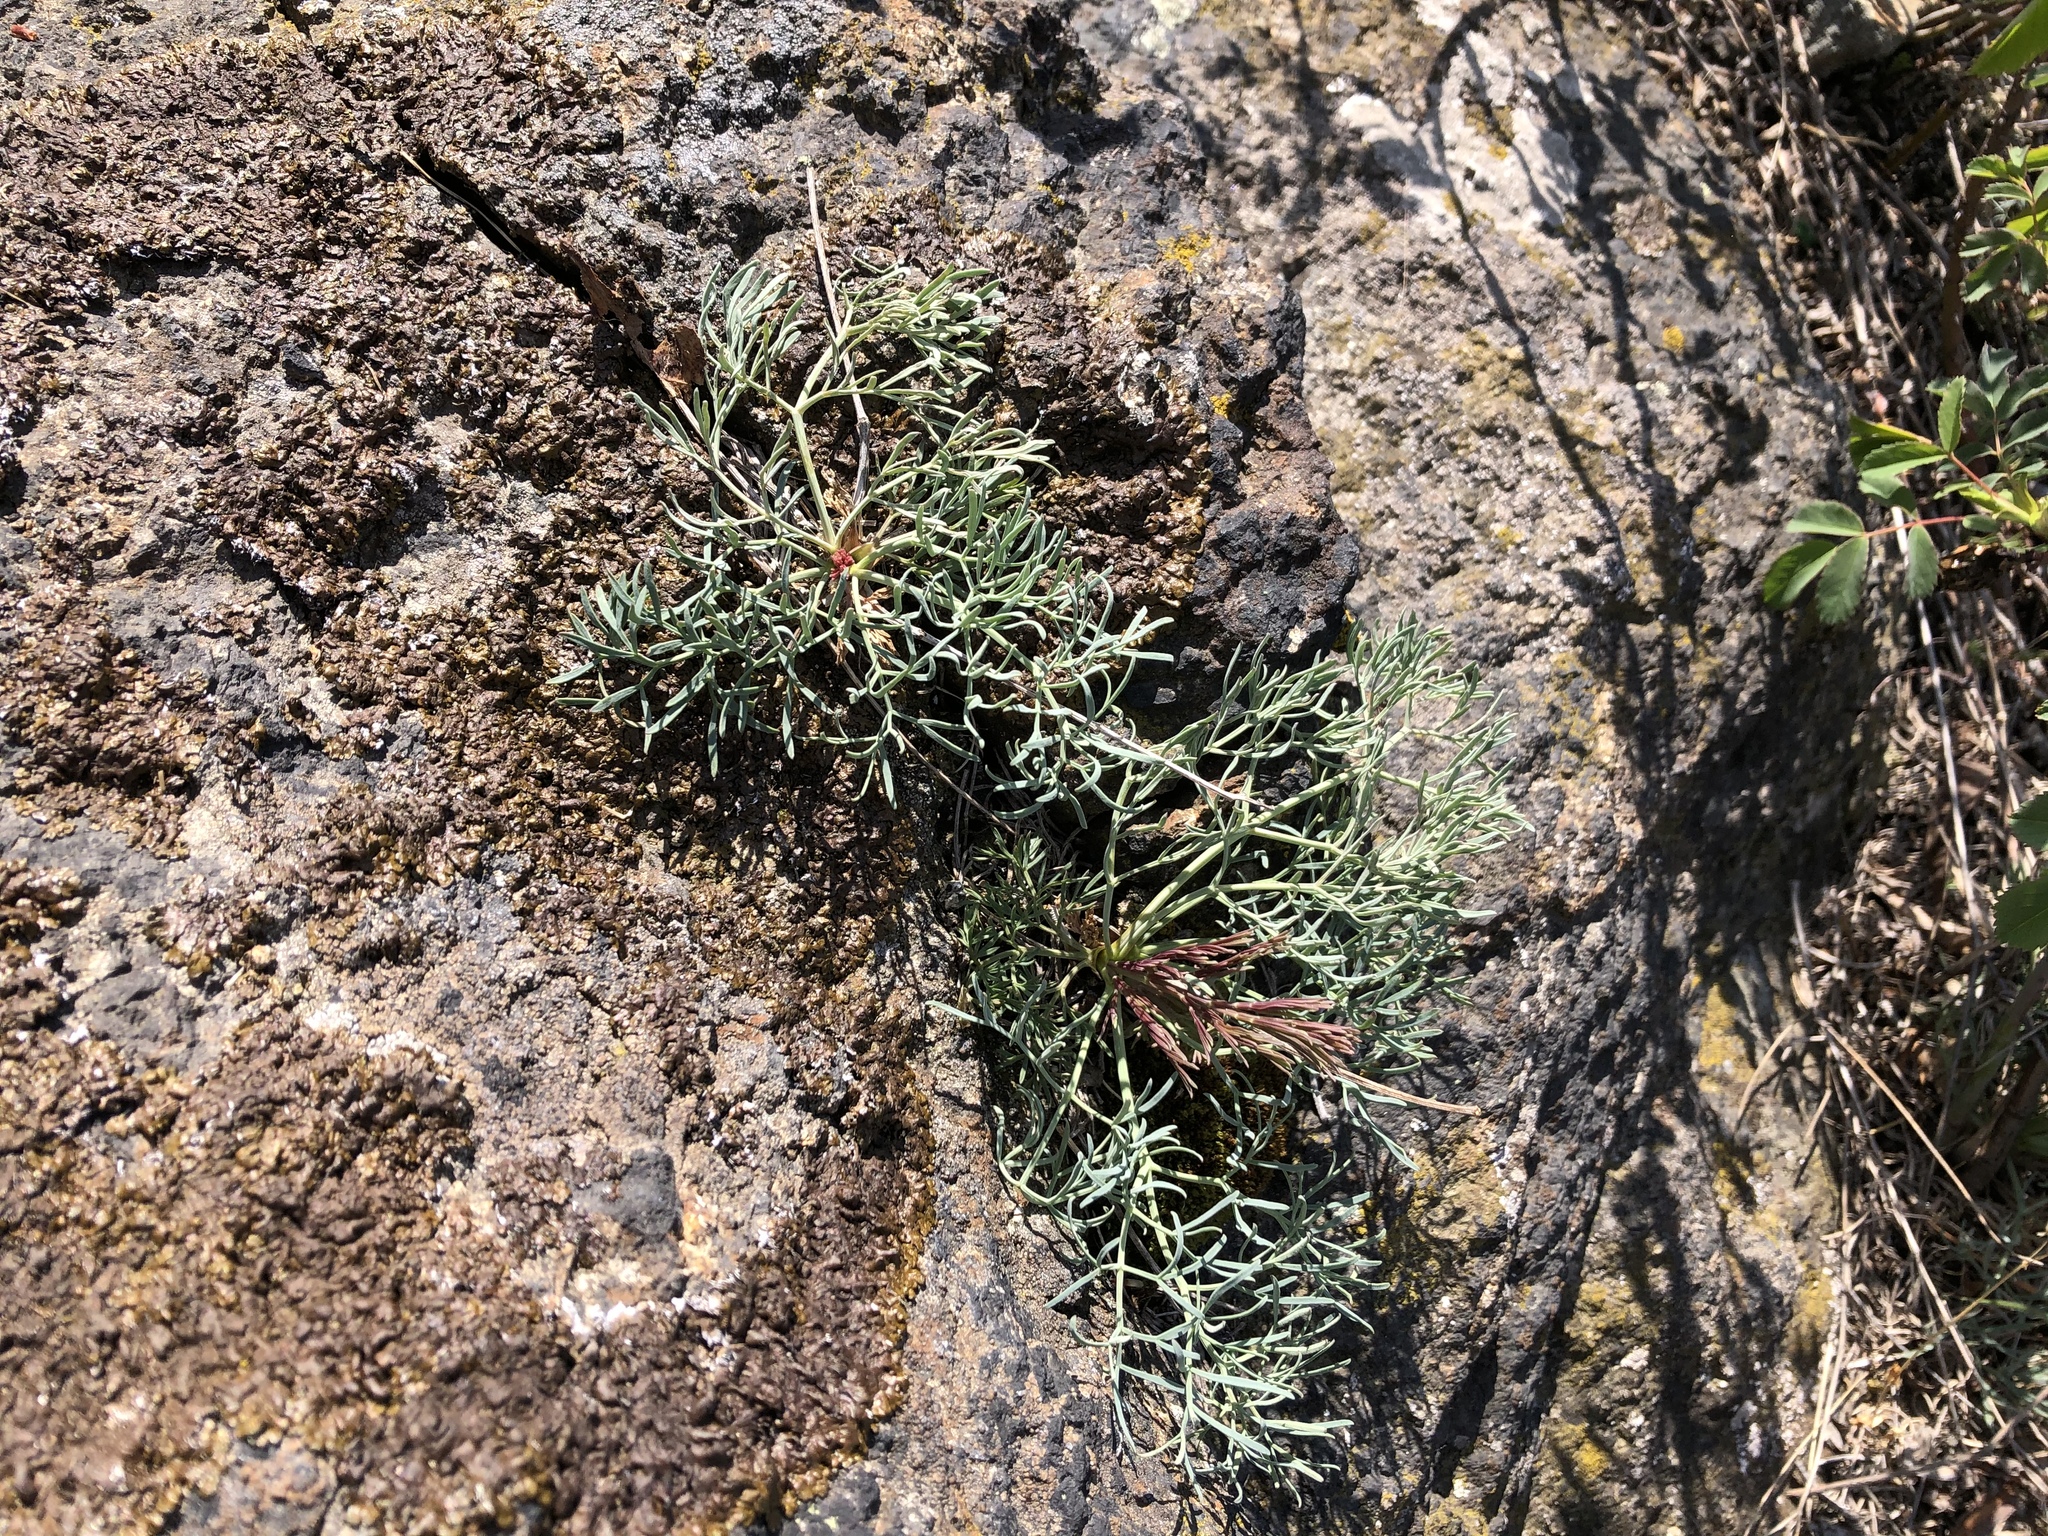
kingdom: Plantae
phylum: Tracheophyta
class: Magnoliopsida
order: Apiales
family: Apiaceae
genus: Seseli
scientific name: Seseli osseum
